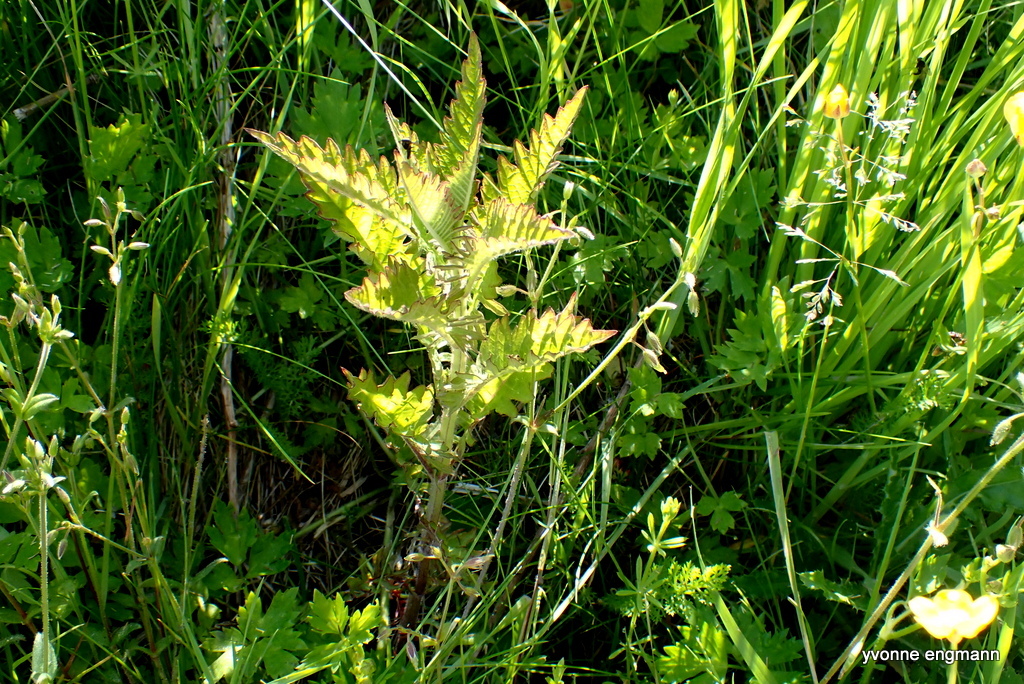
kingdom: Plantae
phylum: Tracheophyta
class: Magnoliopsida
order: Lamiales
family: Lamiaceae
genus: Lycopus
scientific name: Lycopus europaeus
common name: European bugleweed
